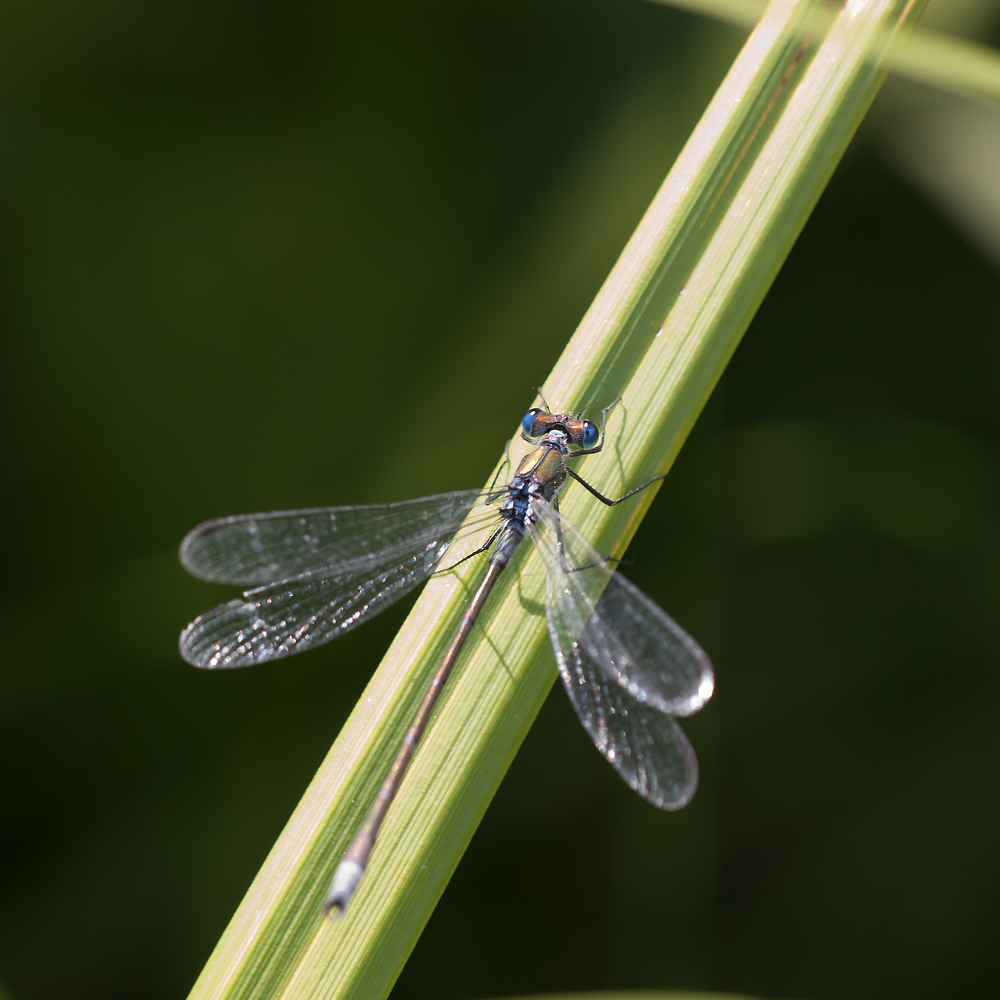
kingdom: Animalia
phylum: Arthropoda
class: Insecta
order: Odonata
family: Lestidae
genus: Lestes
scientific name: Lestes sponsa
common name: Common spreadwing
